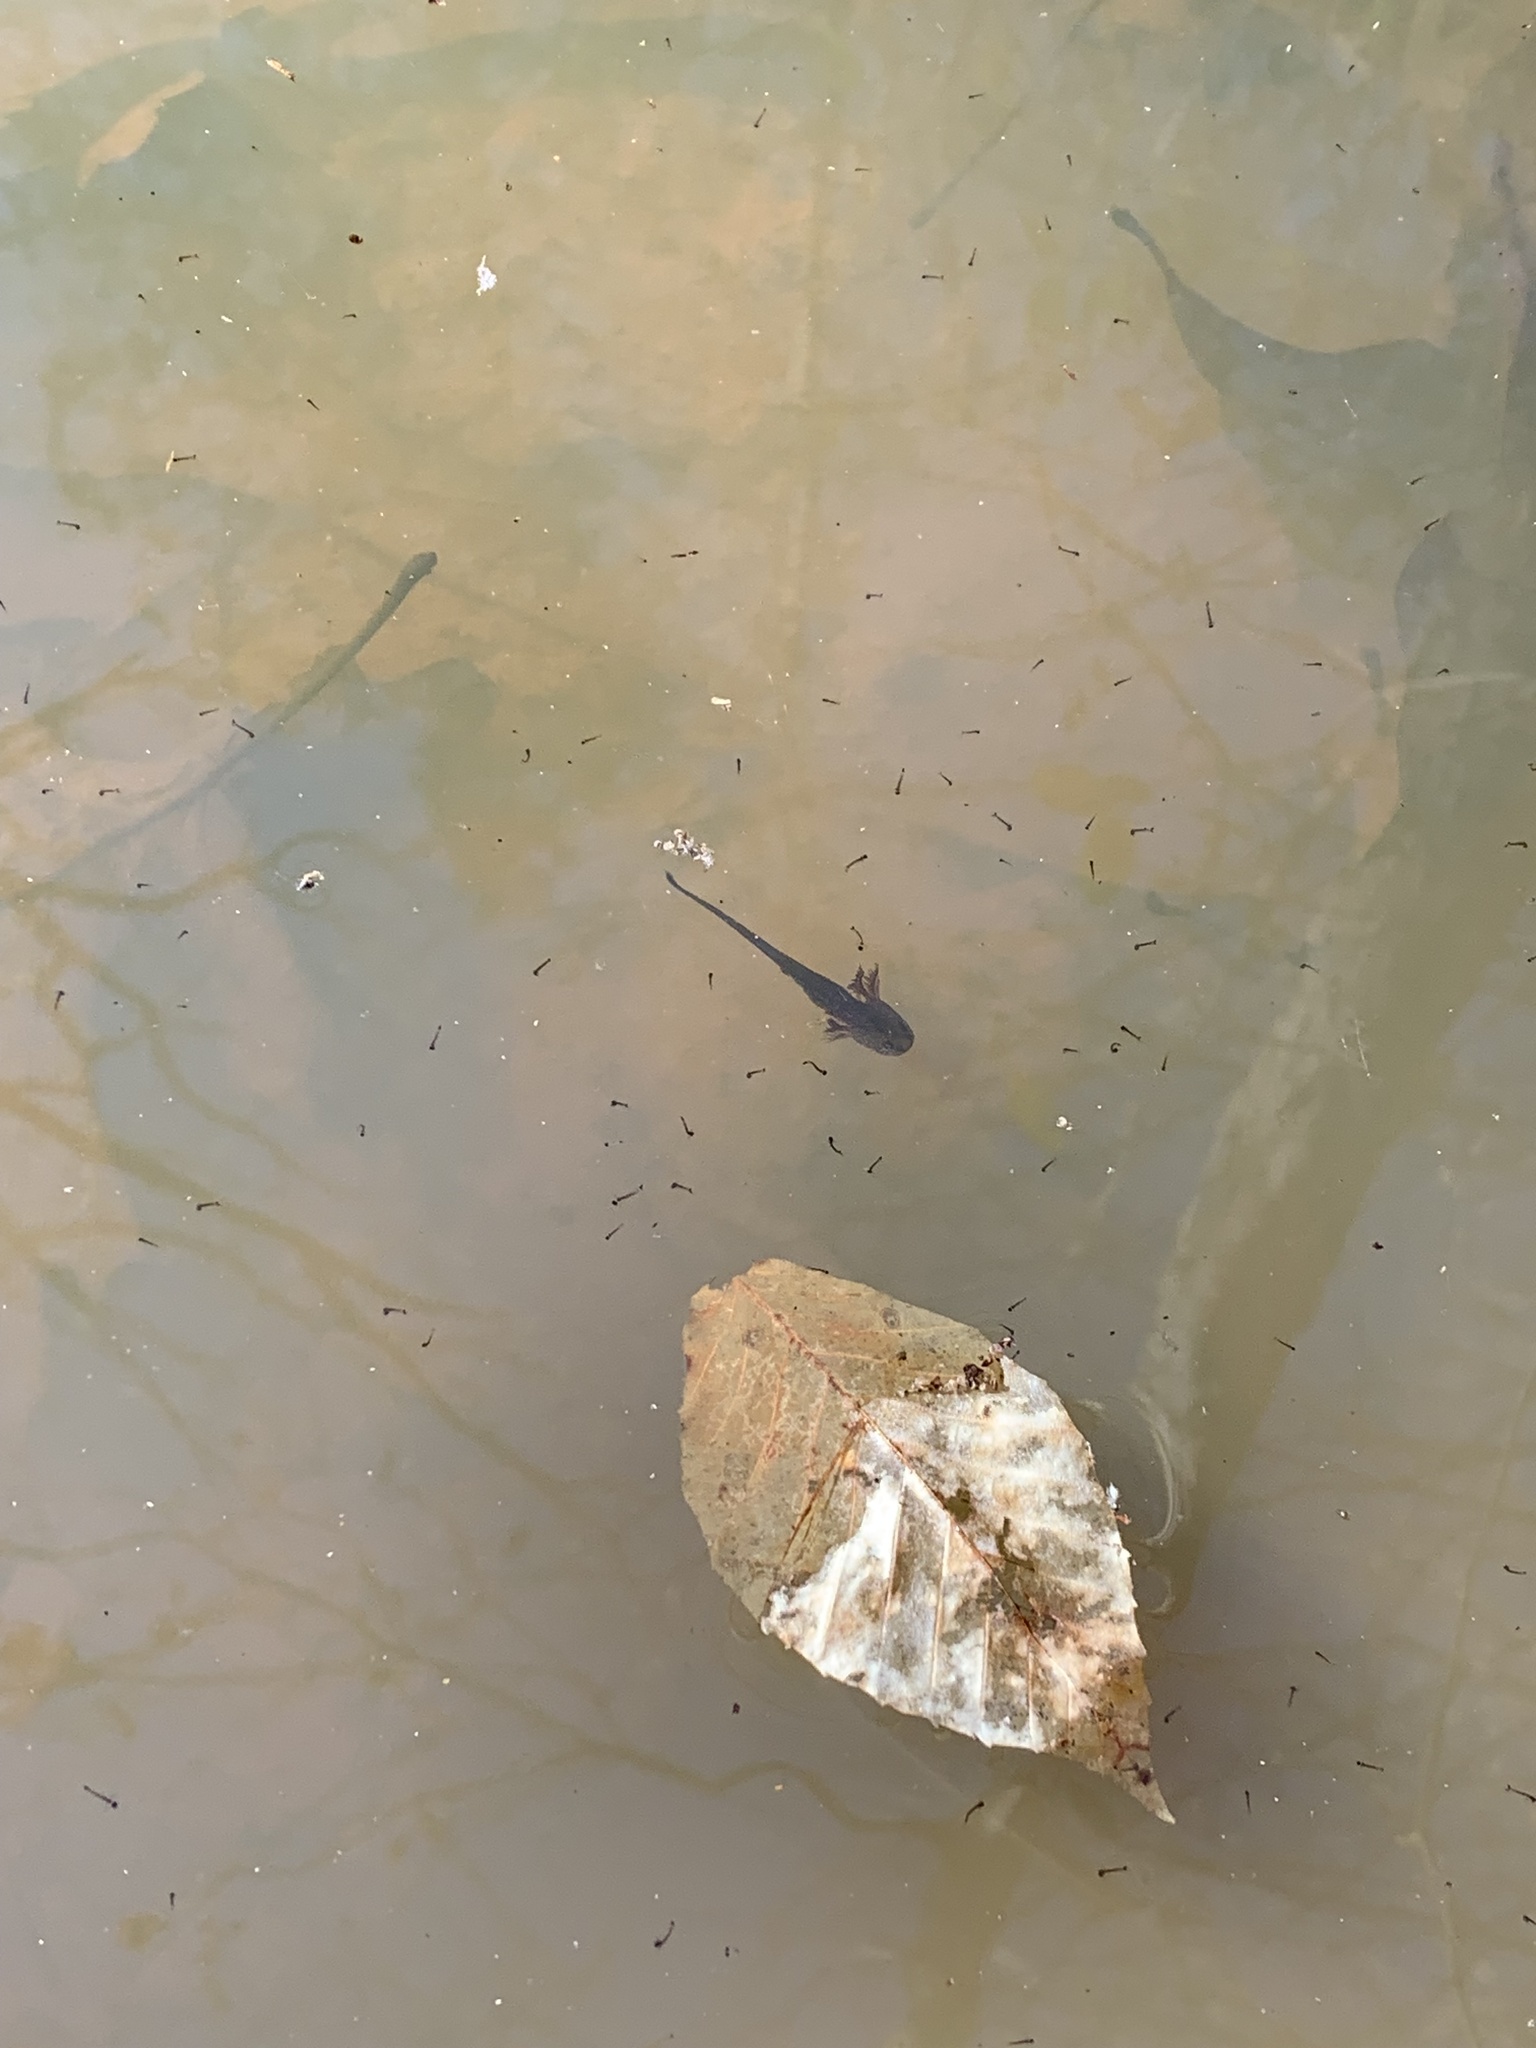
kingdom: Animalia
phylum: Chordata
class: Amphibia
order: Caudata
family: Ambystomatidae
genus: Ambystoma
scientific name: Ambystoma opacum
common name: Marbled salamander
